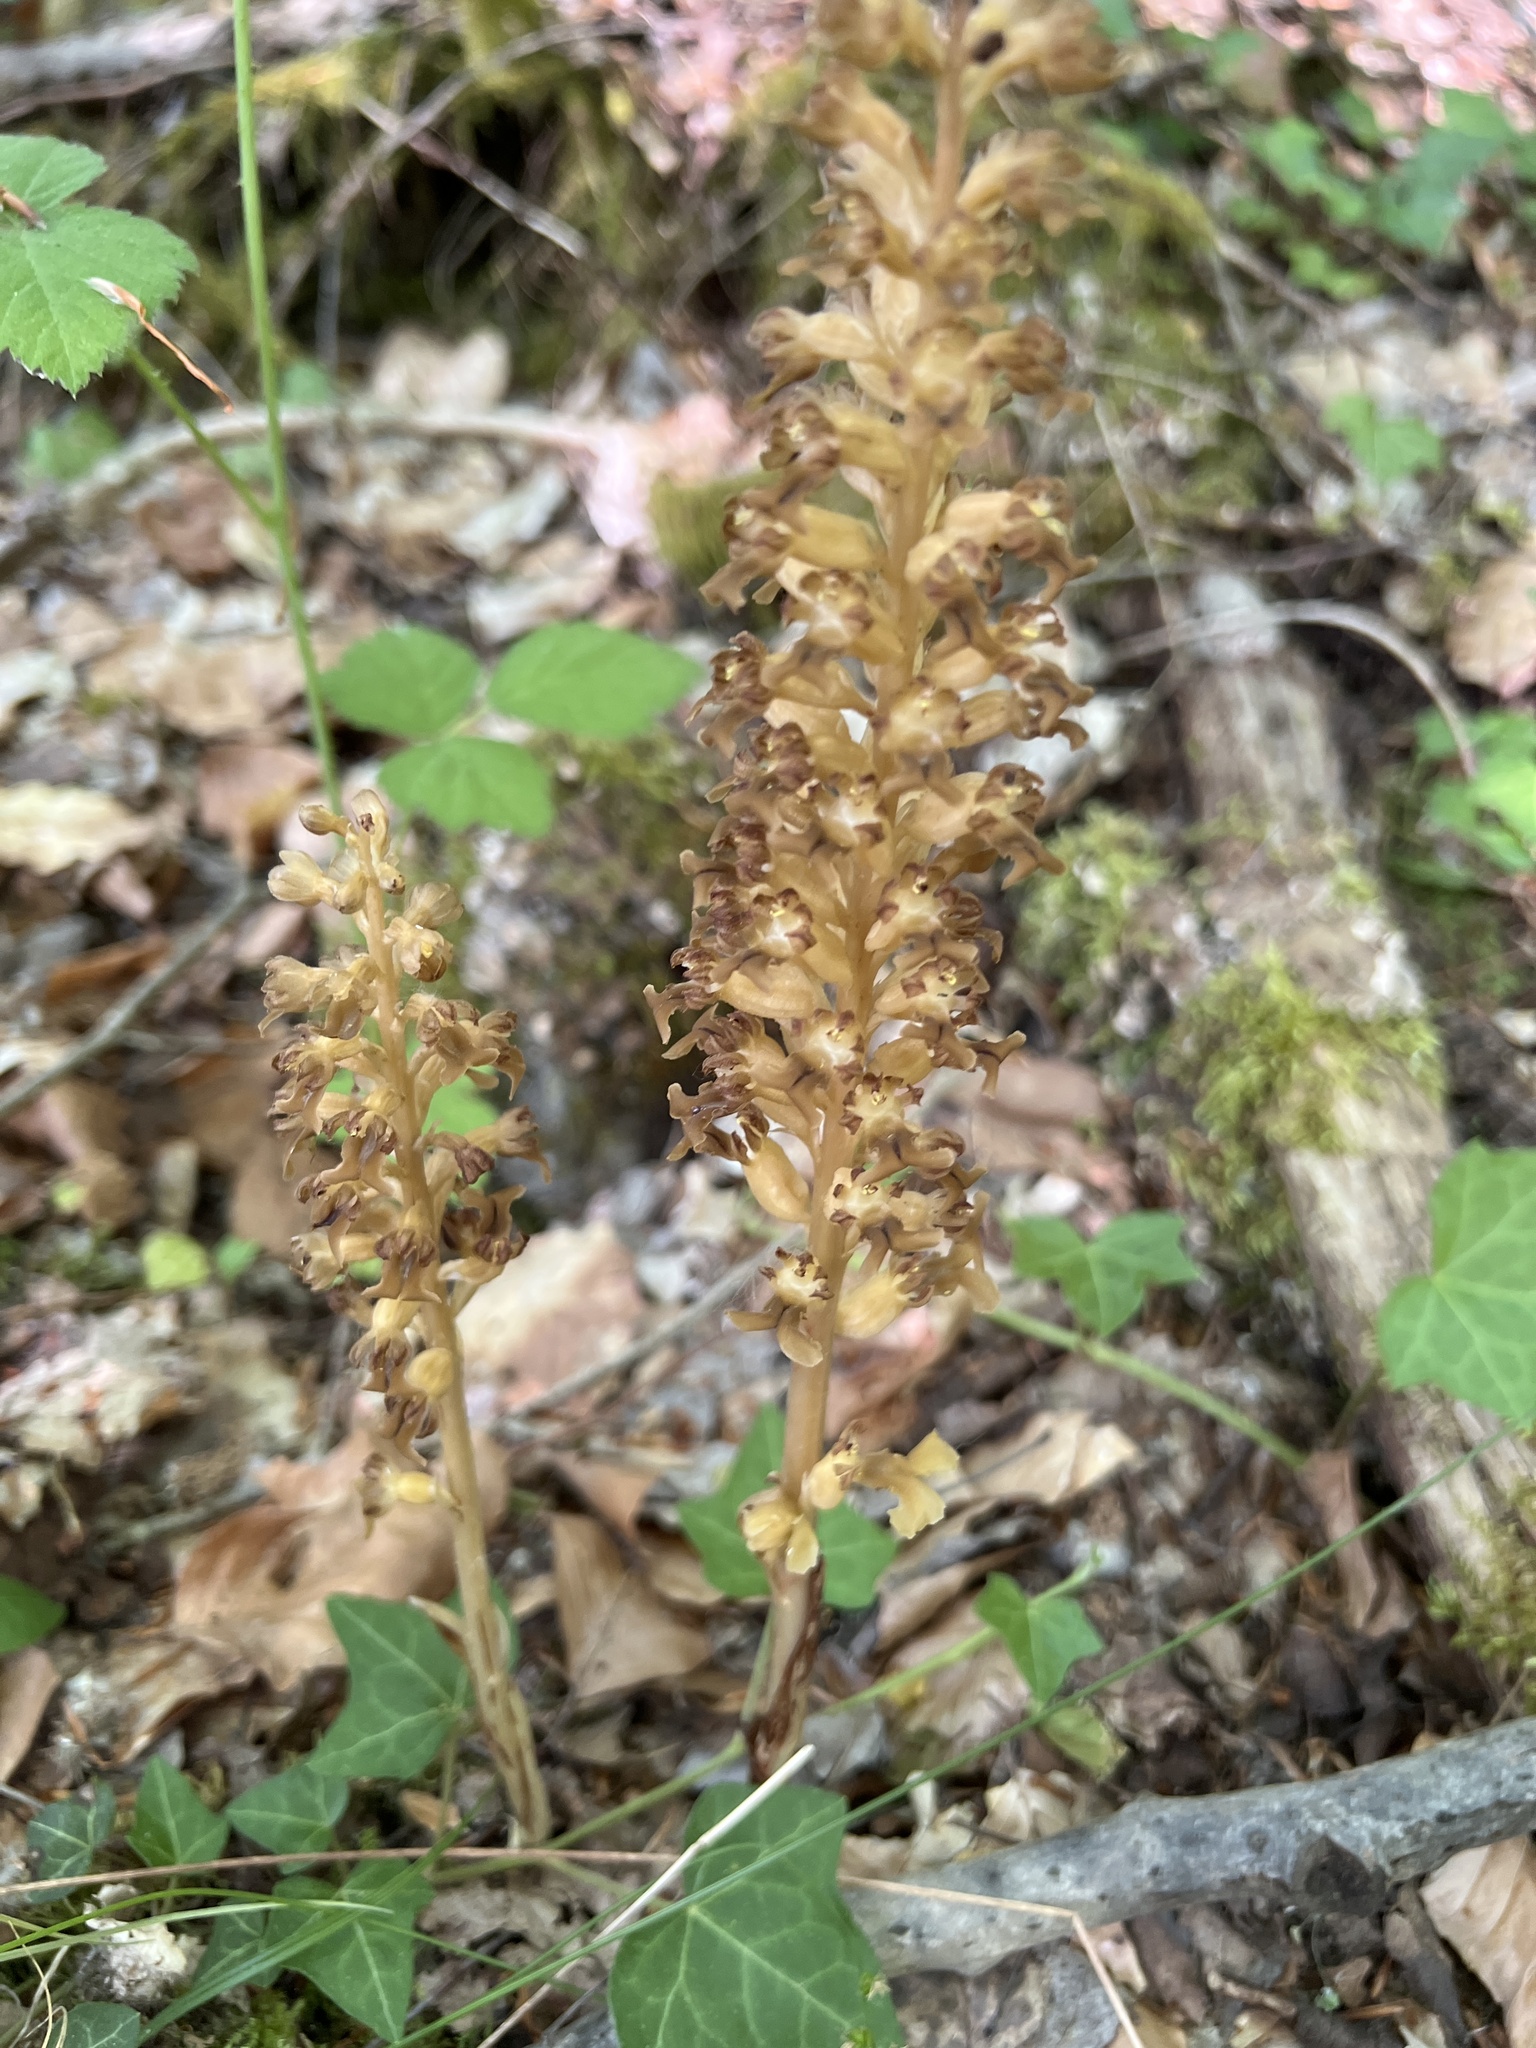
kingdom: Plantae
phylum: Tracheophyta
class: Liliopsida
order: Asparagales
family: Orchidaceae
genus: Neottia
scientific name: Neottia nidus-avis
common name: Bird's-nest orchid
